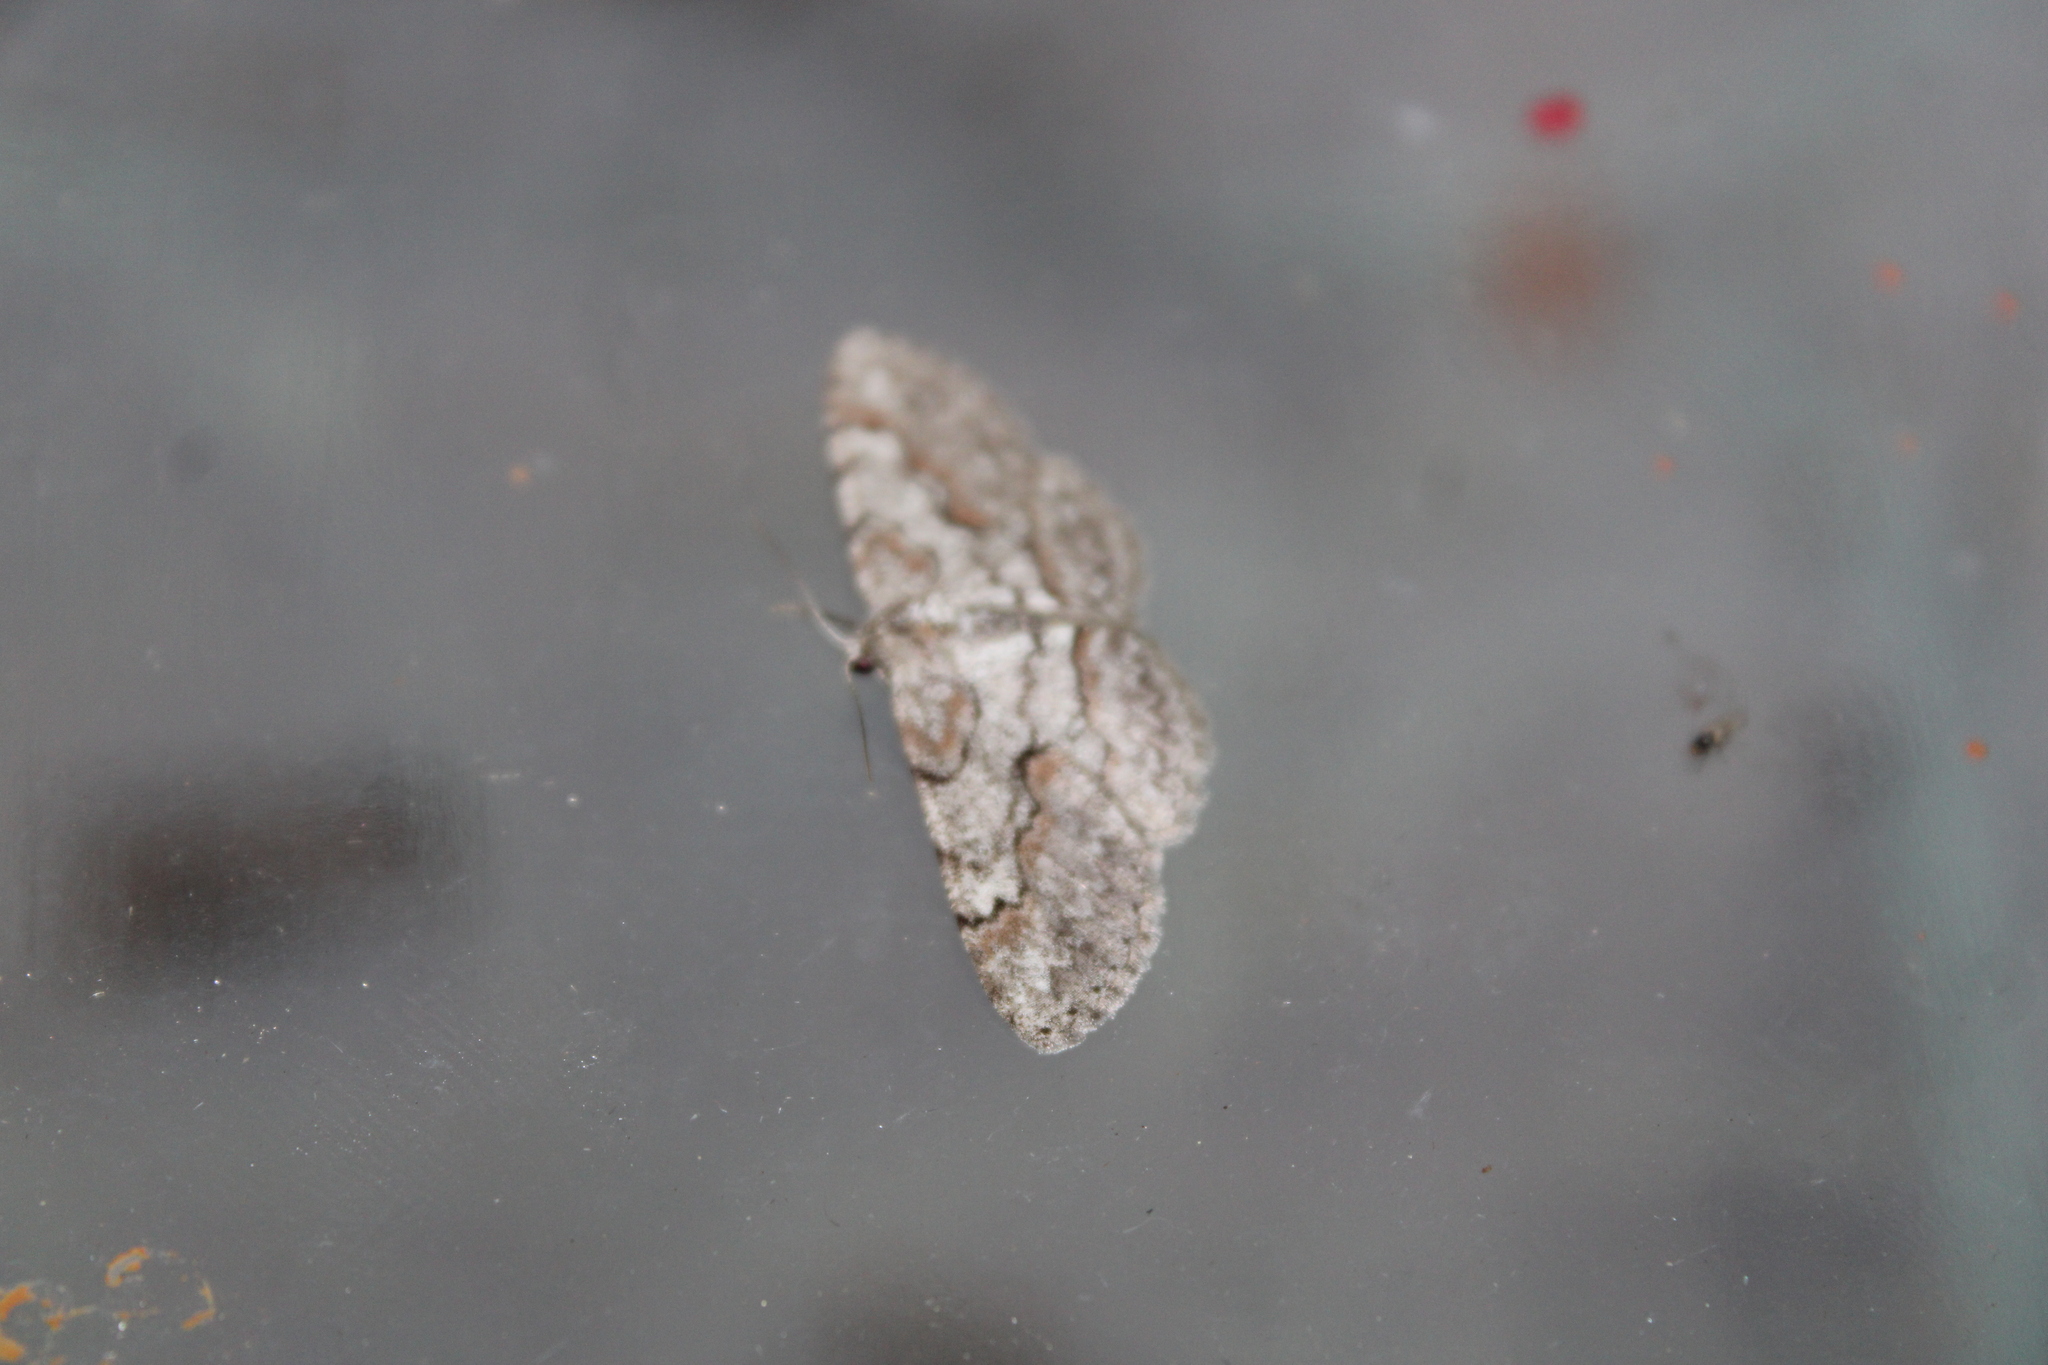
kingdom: Animalia
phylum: Arthropoda
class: Insecta
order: Lepidoptera
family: Geometridae
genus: Iridopsis
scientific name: Iridopsis vellivolata
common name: Large purplish gray
